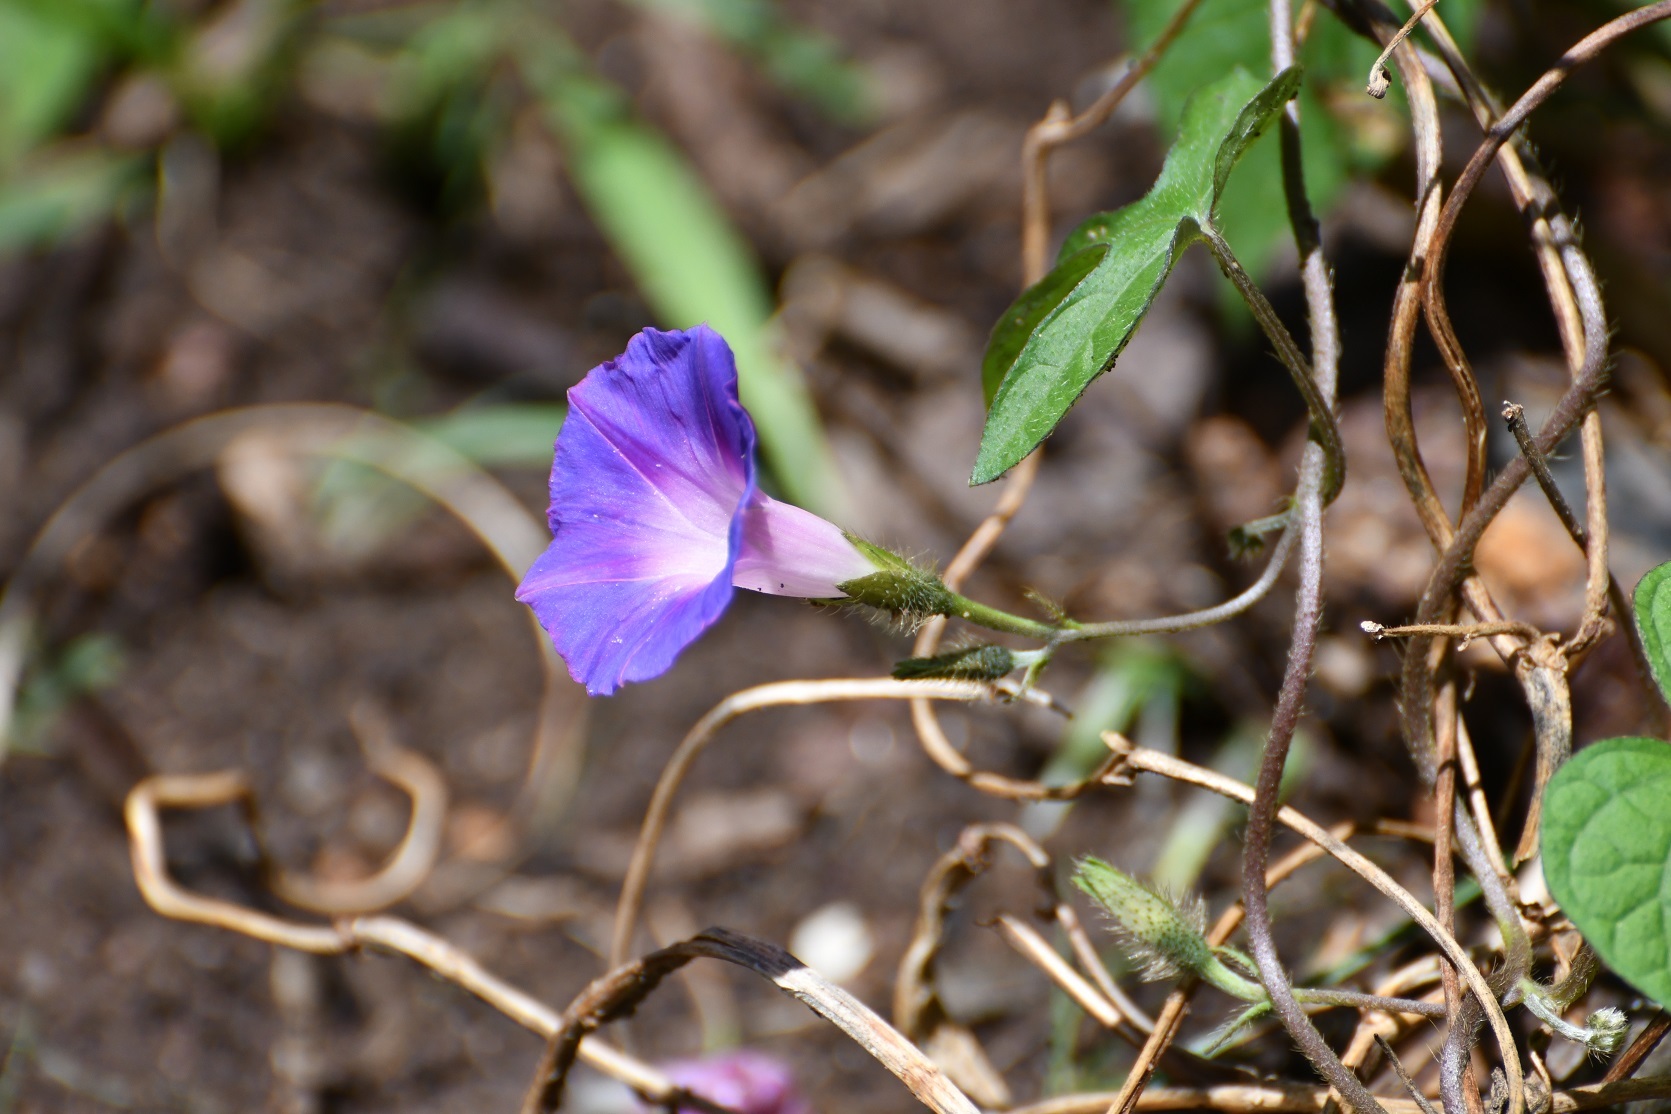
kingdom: Plantae
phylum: Tracheophyta
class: Magnoliopsida
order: Solanales
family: Convolvulaceae
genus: Ipomoea
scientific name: Ipomoea purpurea
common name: Common morning-glory
